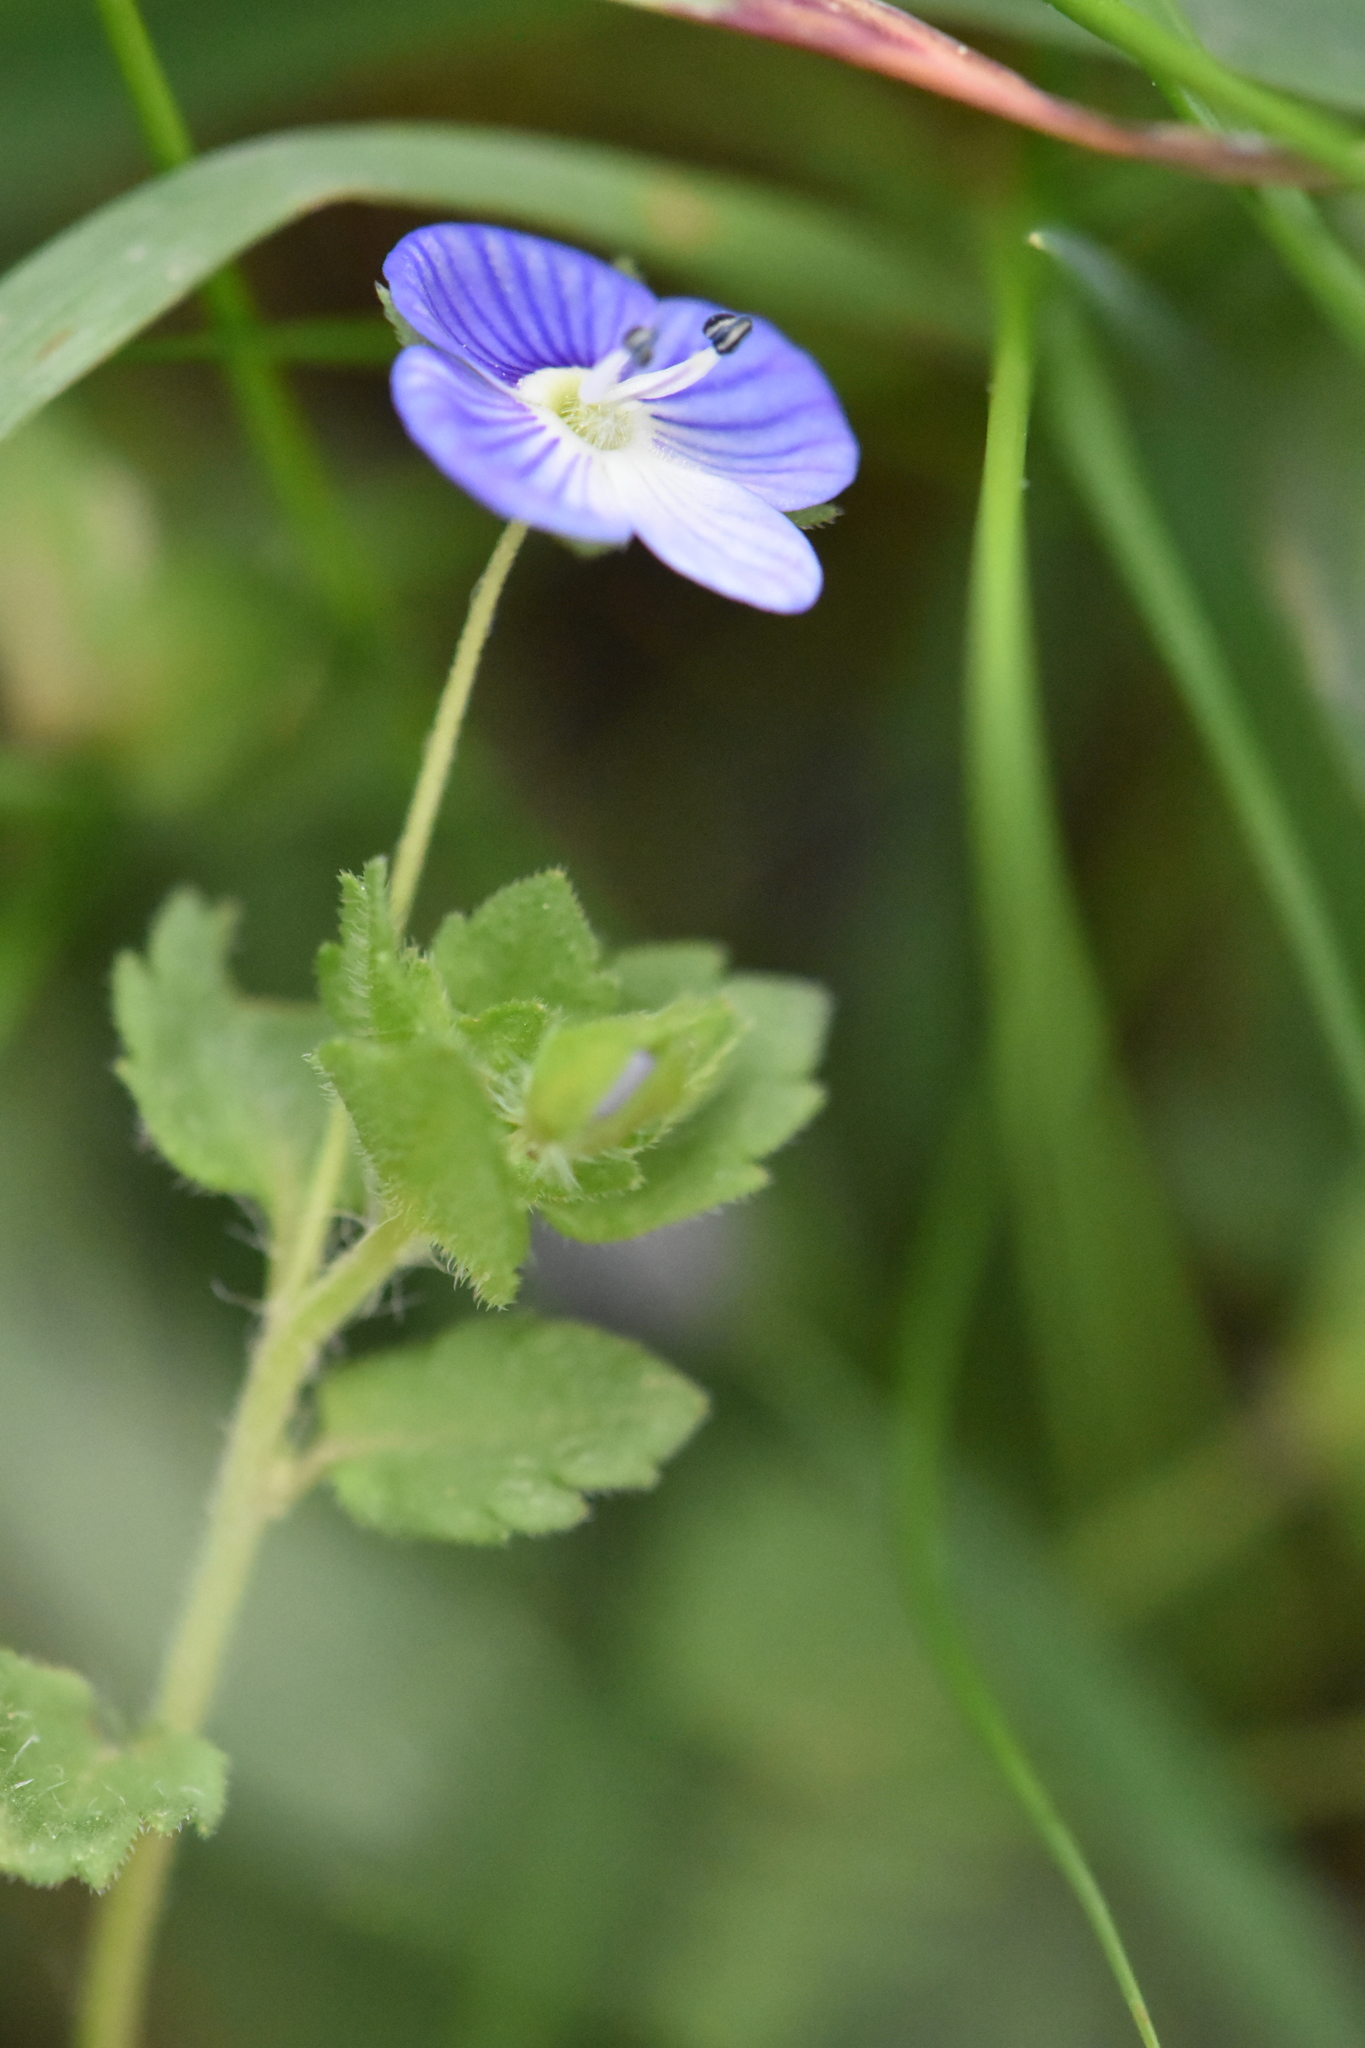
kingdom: Plantae
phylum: Tracheophyta
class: Magnoliopsida
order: Lamiales
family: Plantaginaceae
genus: Veronica
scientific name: Veronica persica
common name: Common field-speedwell
